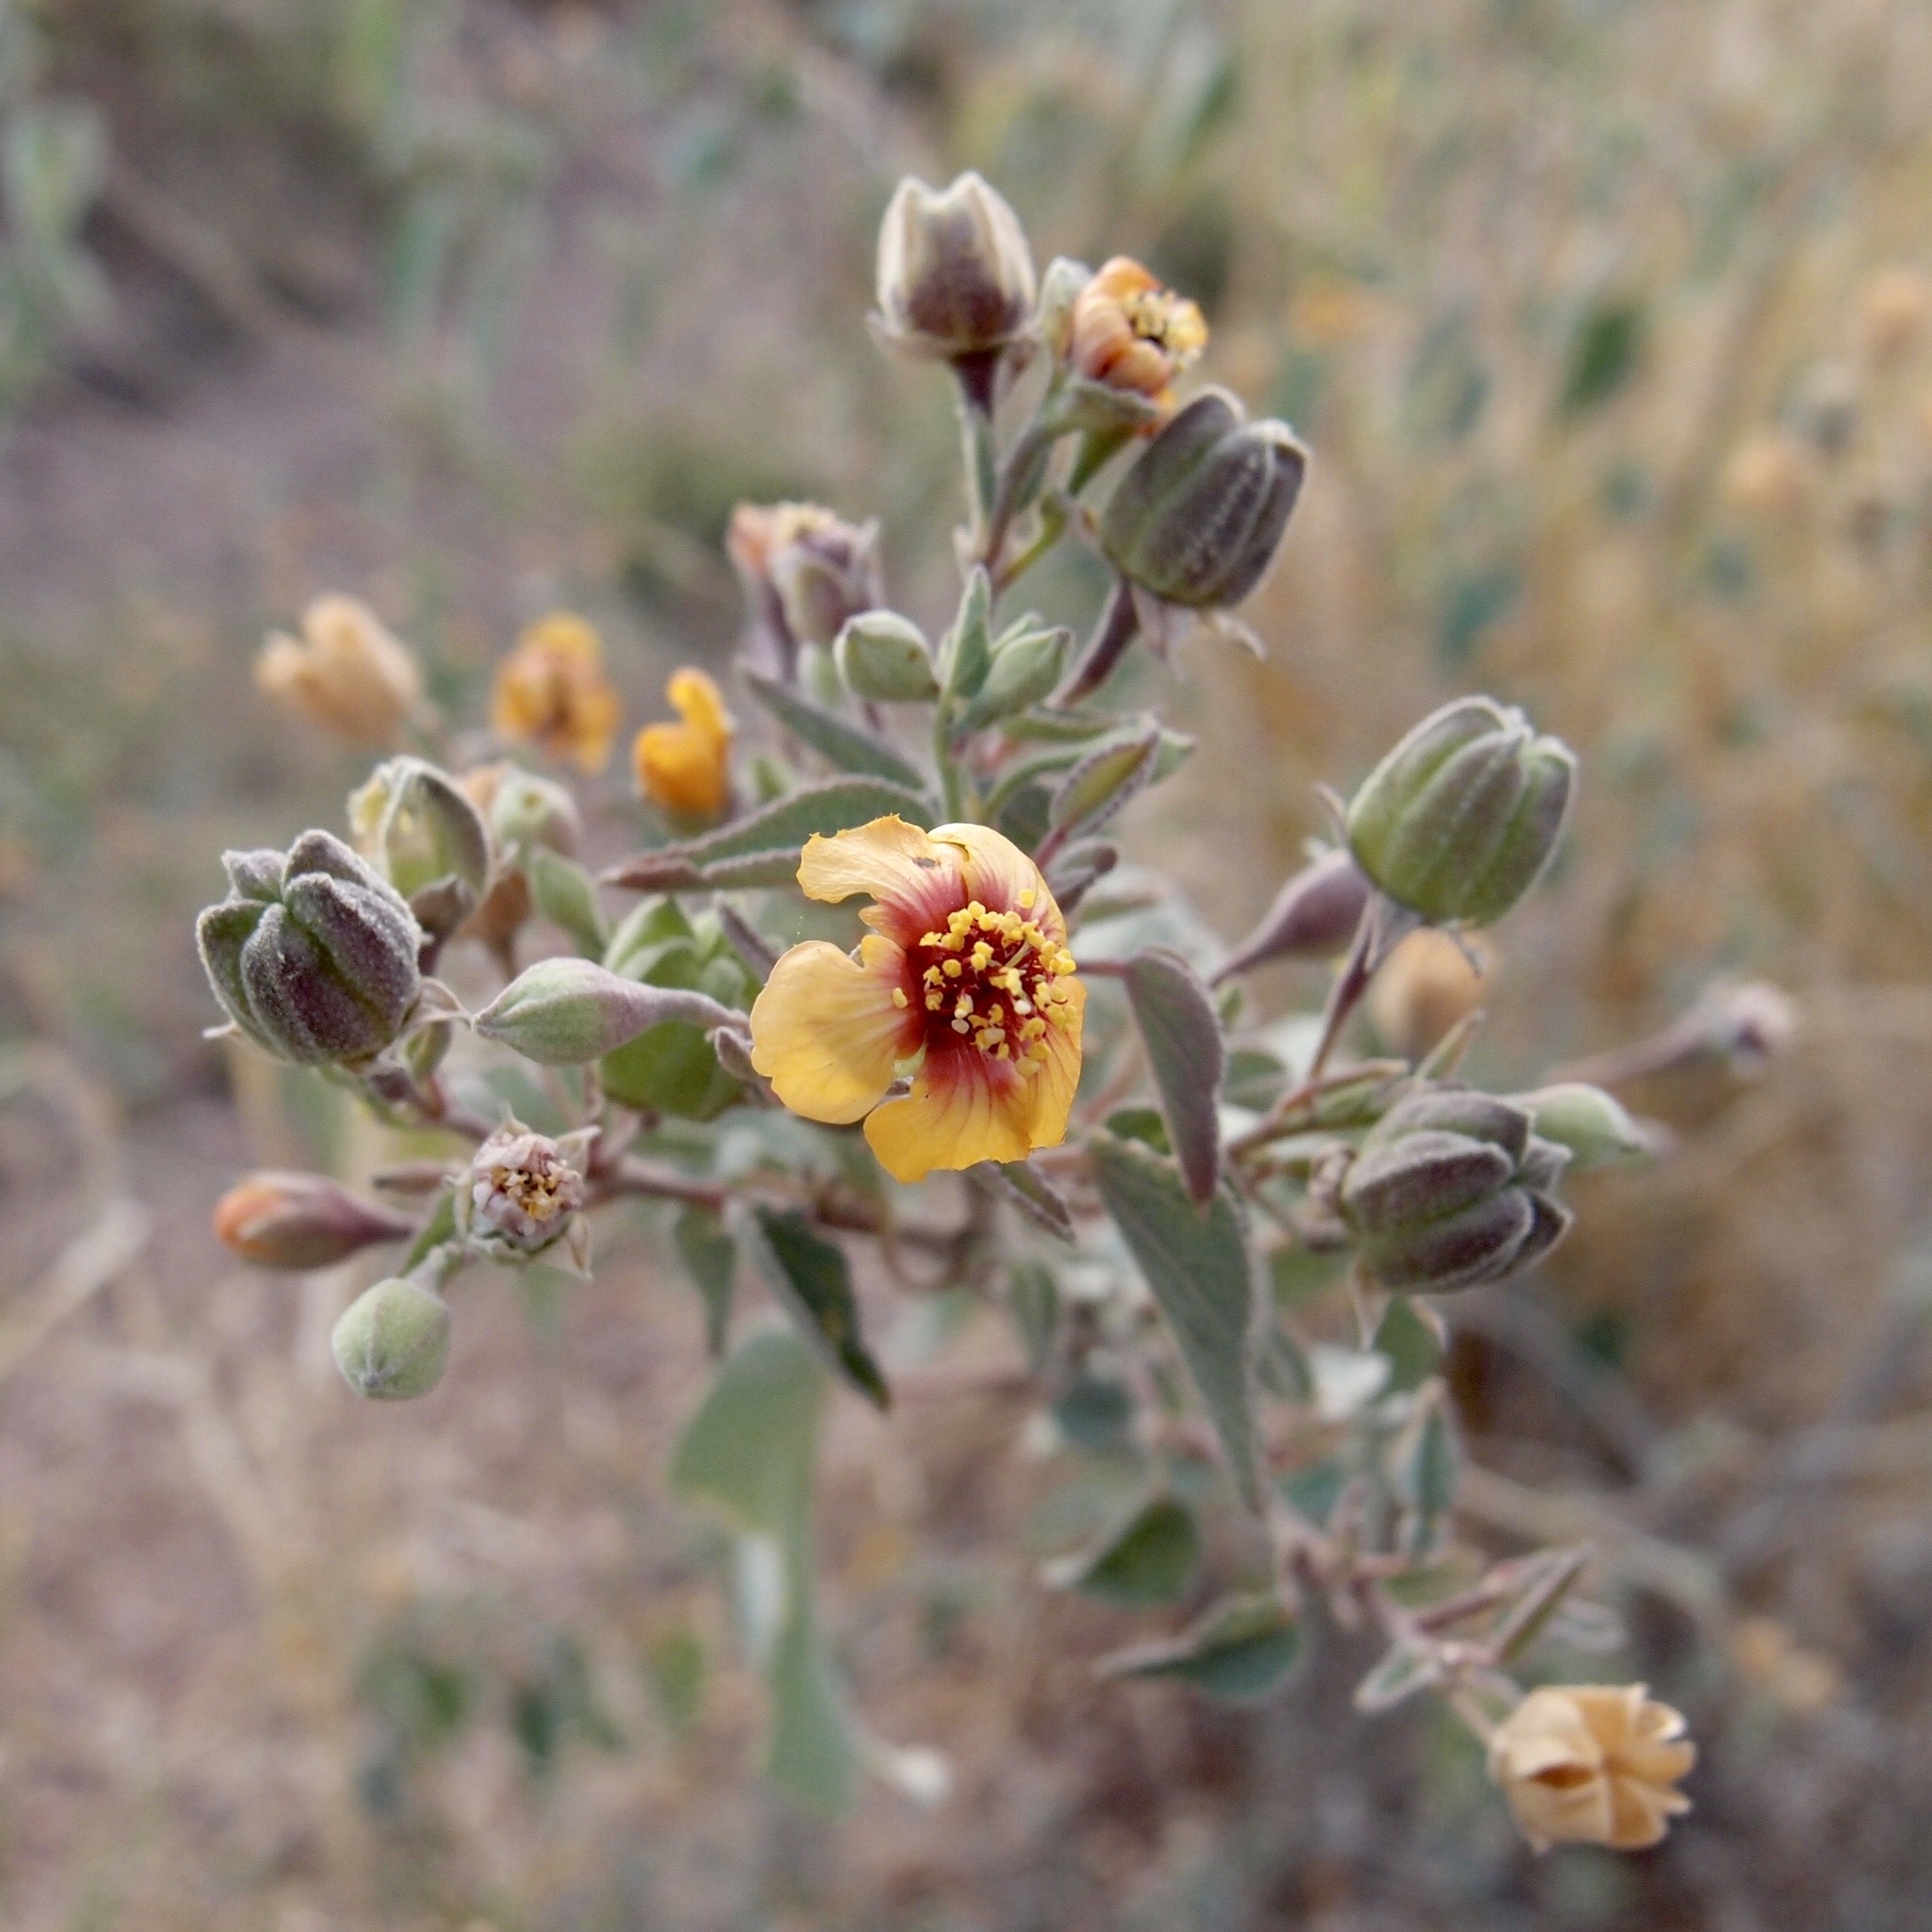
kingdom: Plantae
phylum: Tracheophyta
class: Magnoliopsida
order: Malvales
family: Malvaceae
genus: Abutilon
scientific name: Abutilon incanum
